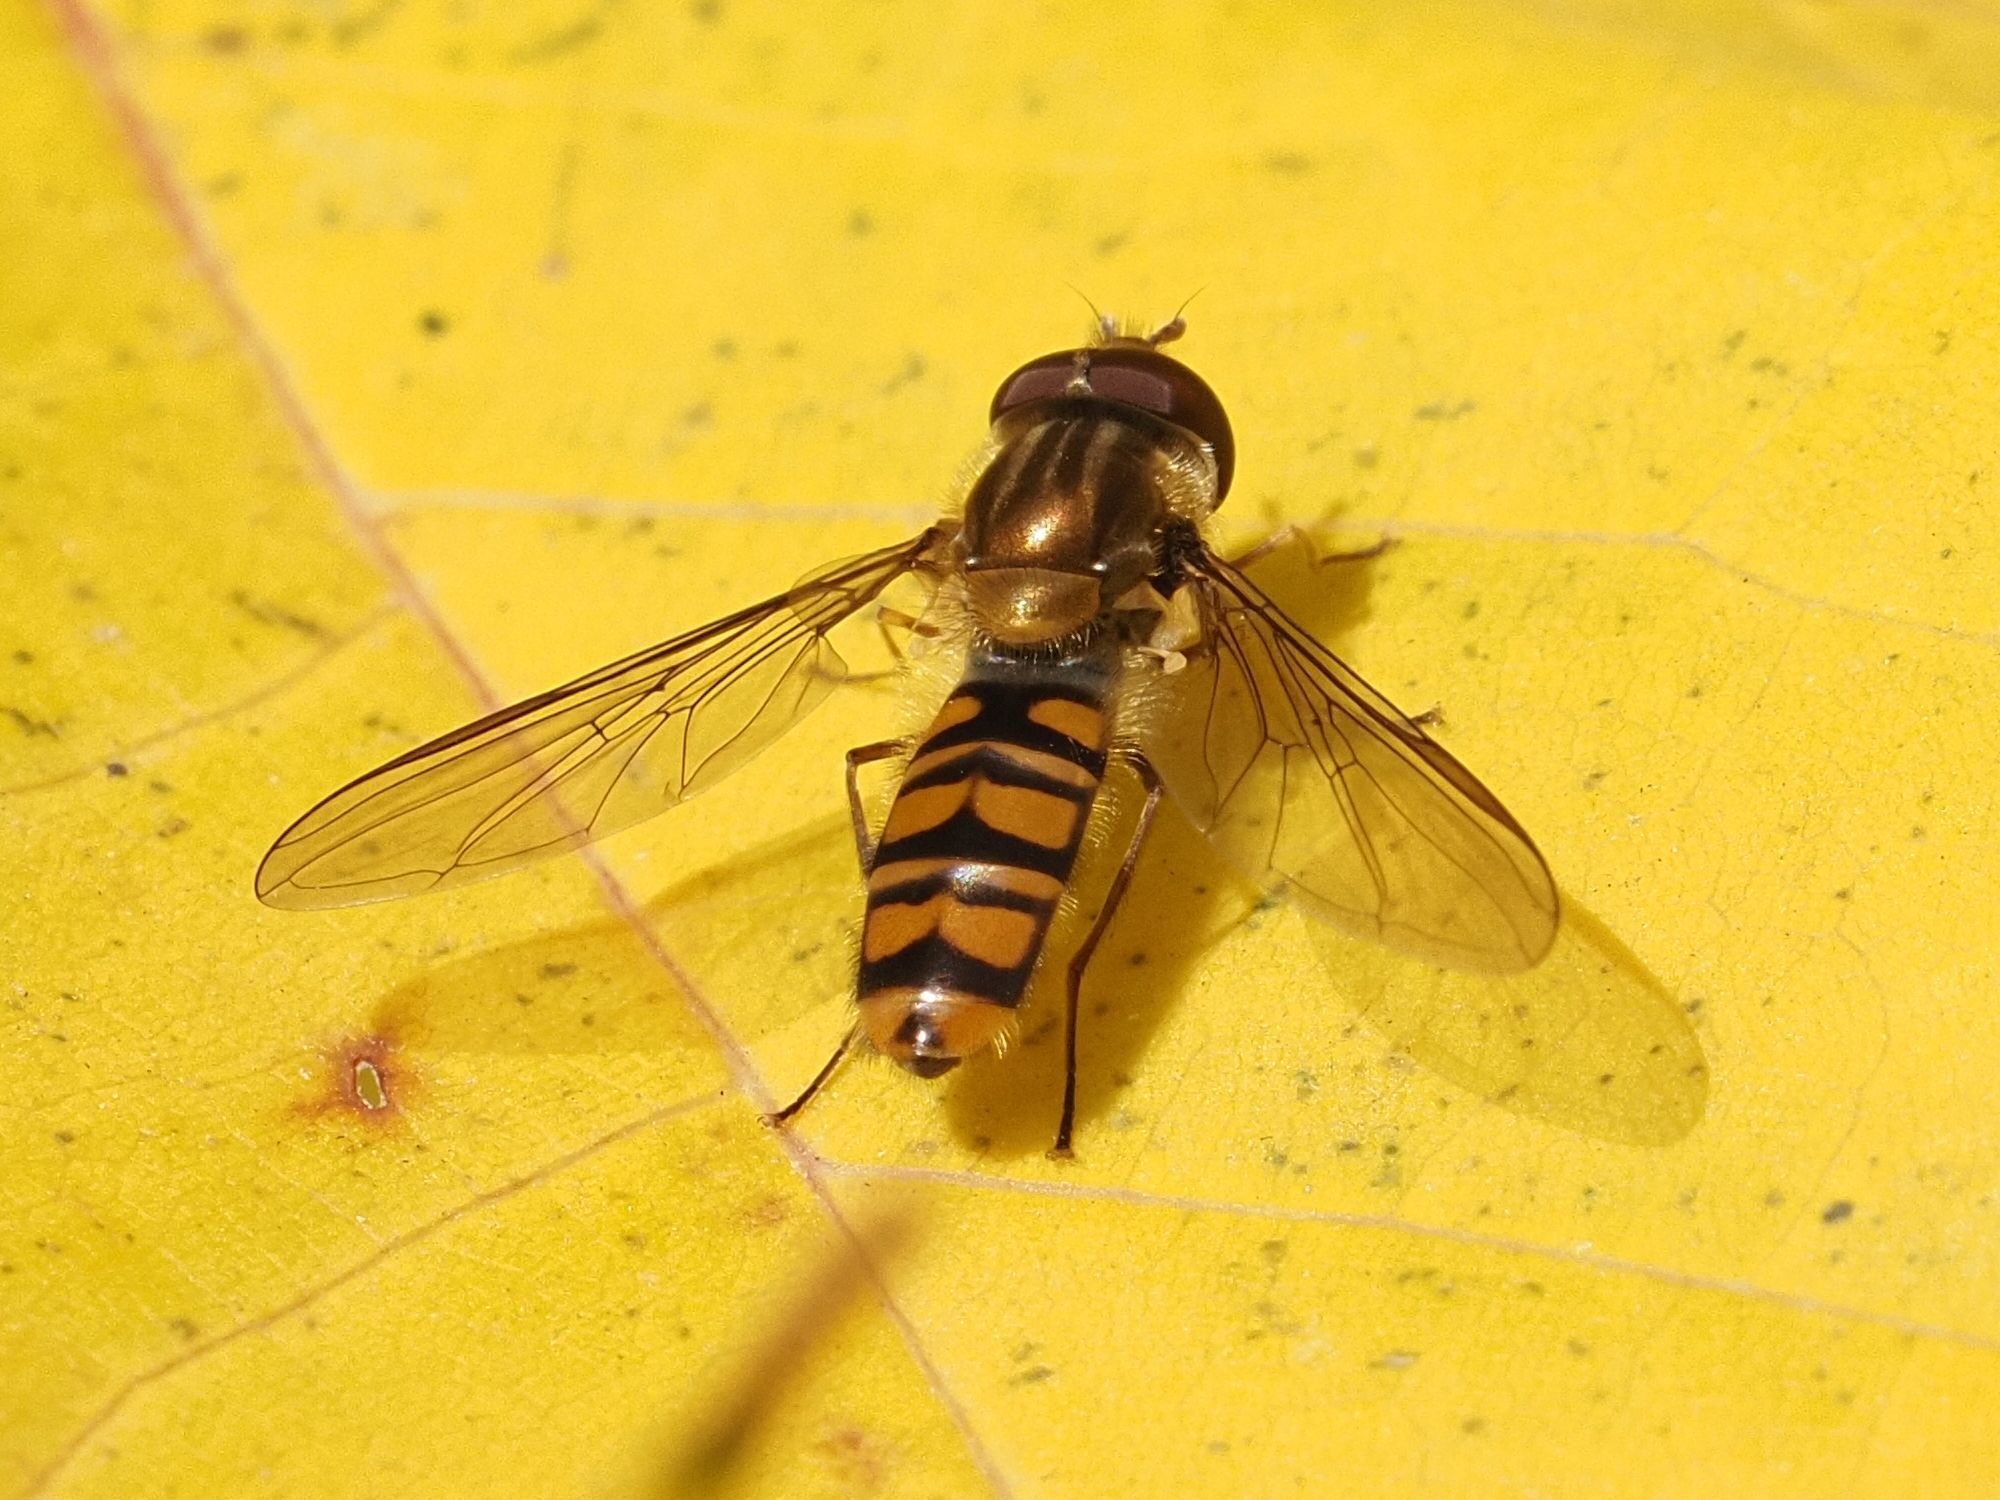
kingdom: Animalia
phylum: Arthropoda
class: Insecta
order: Diptera
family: Syrphidae
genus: Episyrphus
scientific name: Episyrphus balteatus
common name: Marmalade hoverfly
